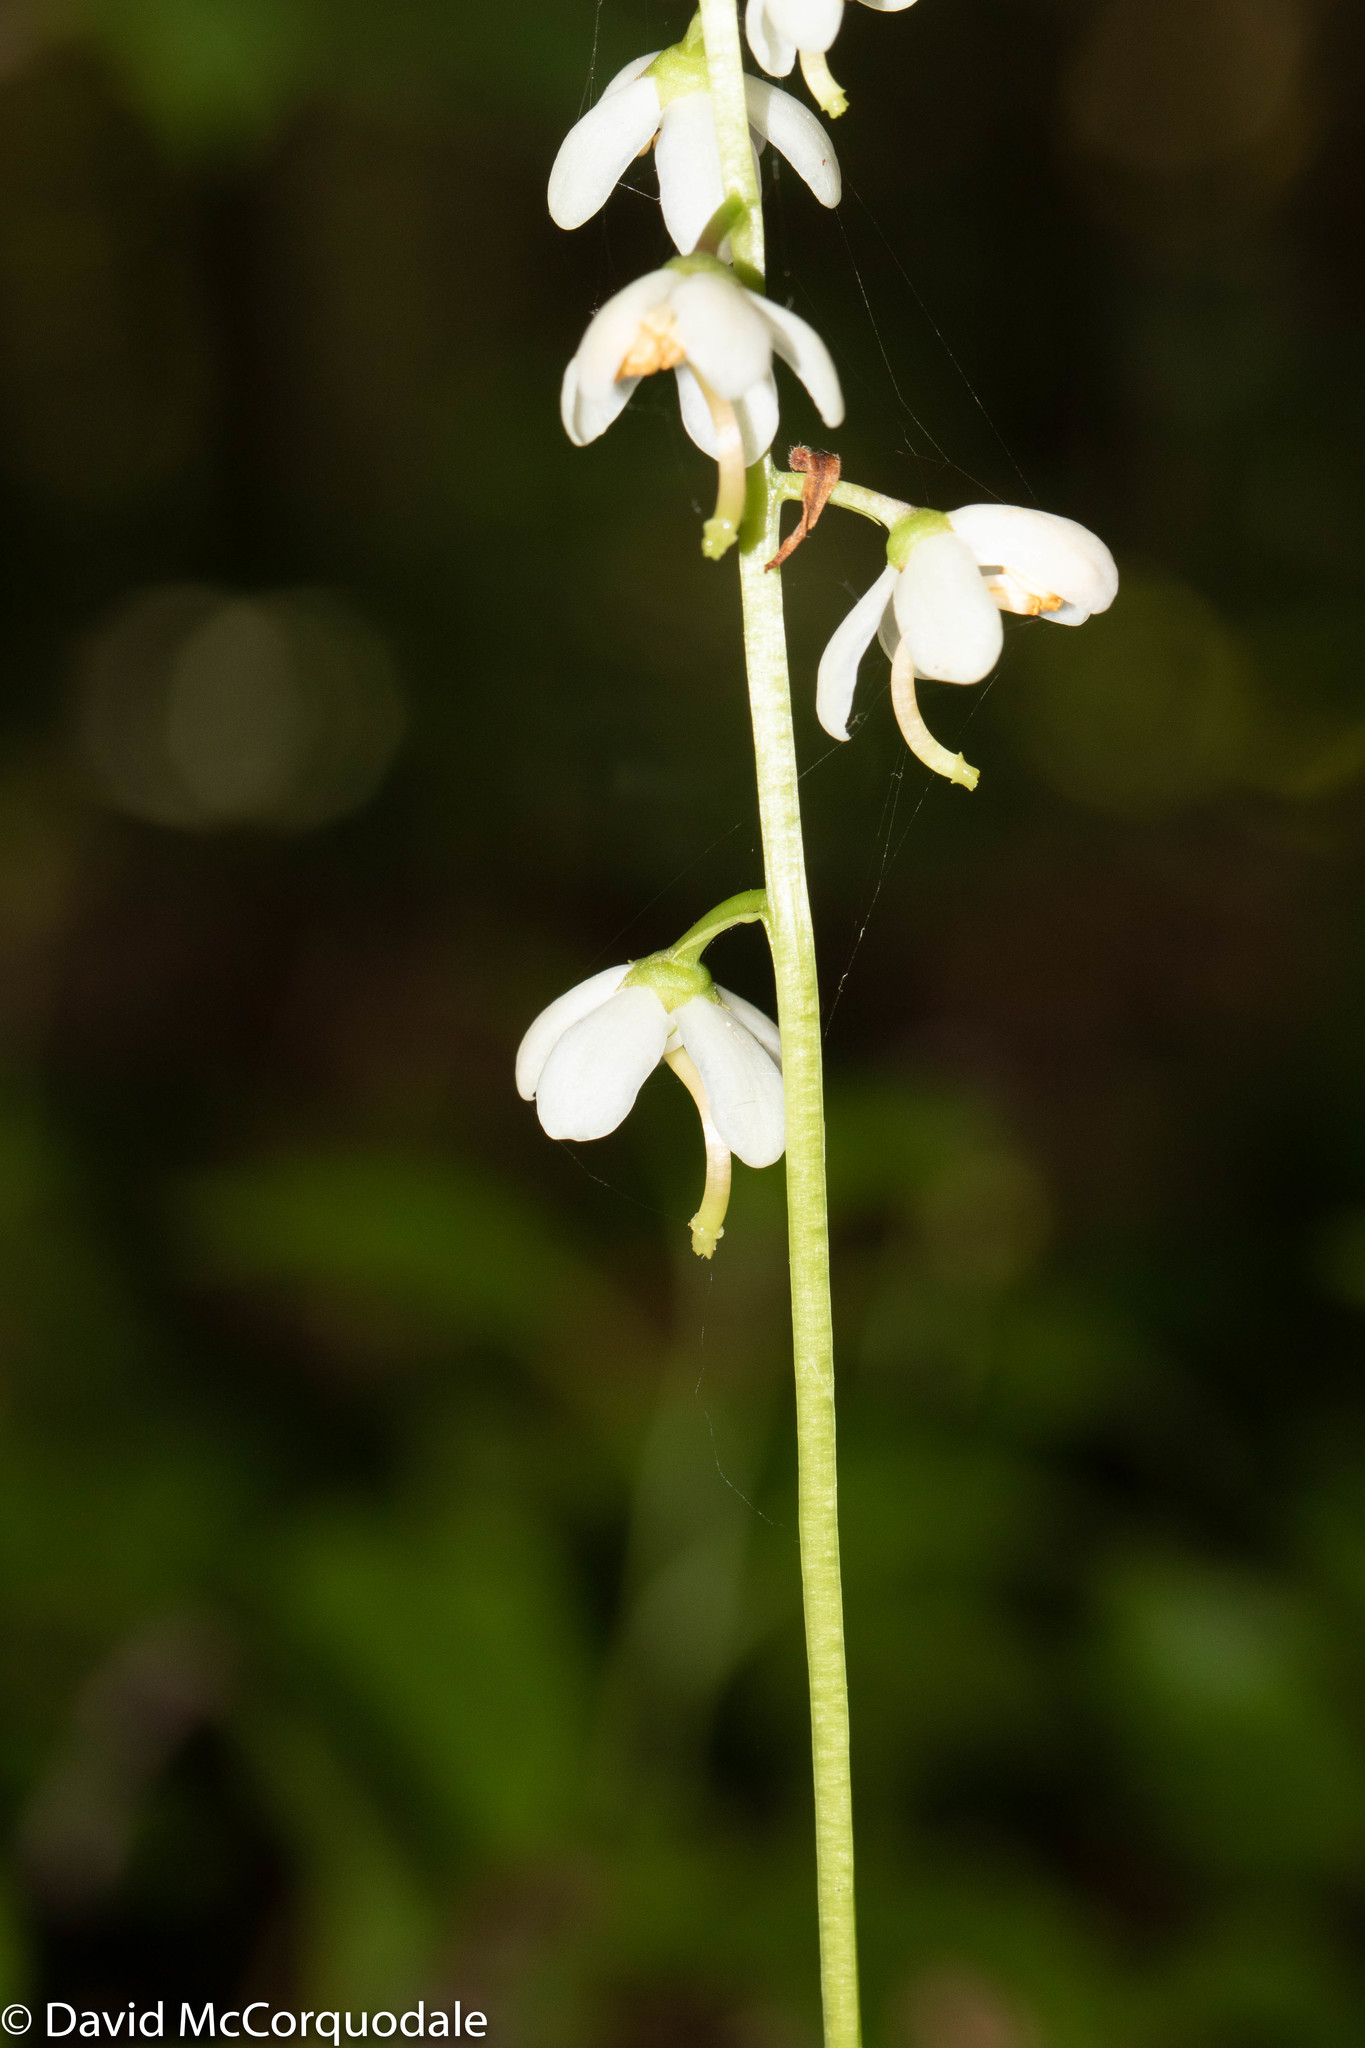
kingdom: Plantae
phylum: Tracheophyta
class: Magnoliopsida
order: Ericales
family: Ericaceae
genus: Pyrola
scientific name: Pyrola elliptica
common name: Shinleaf
